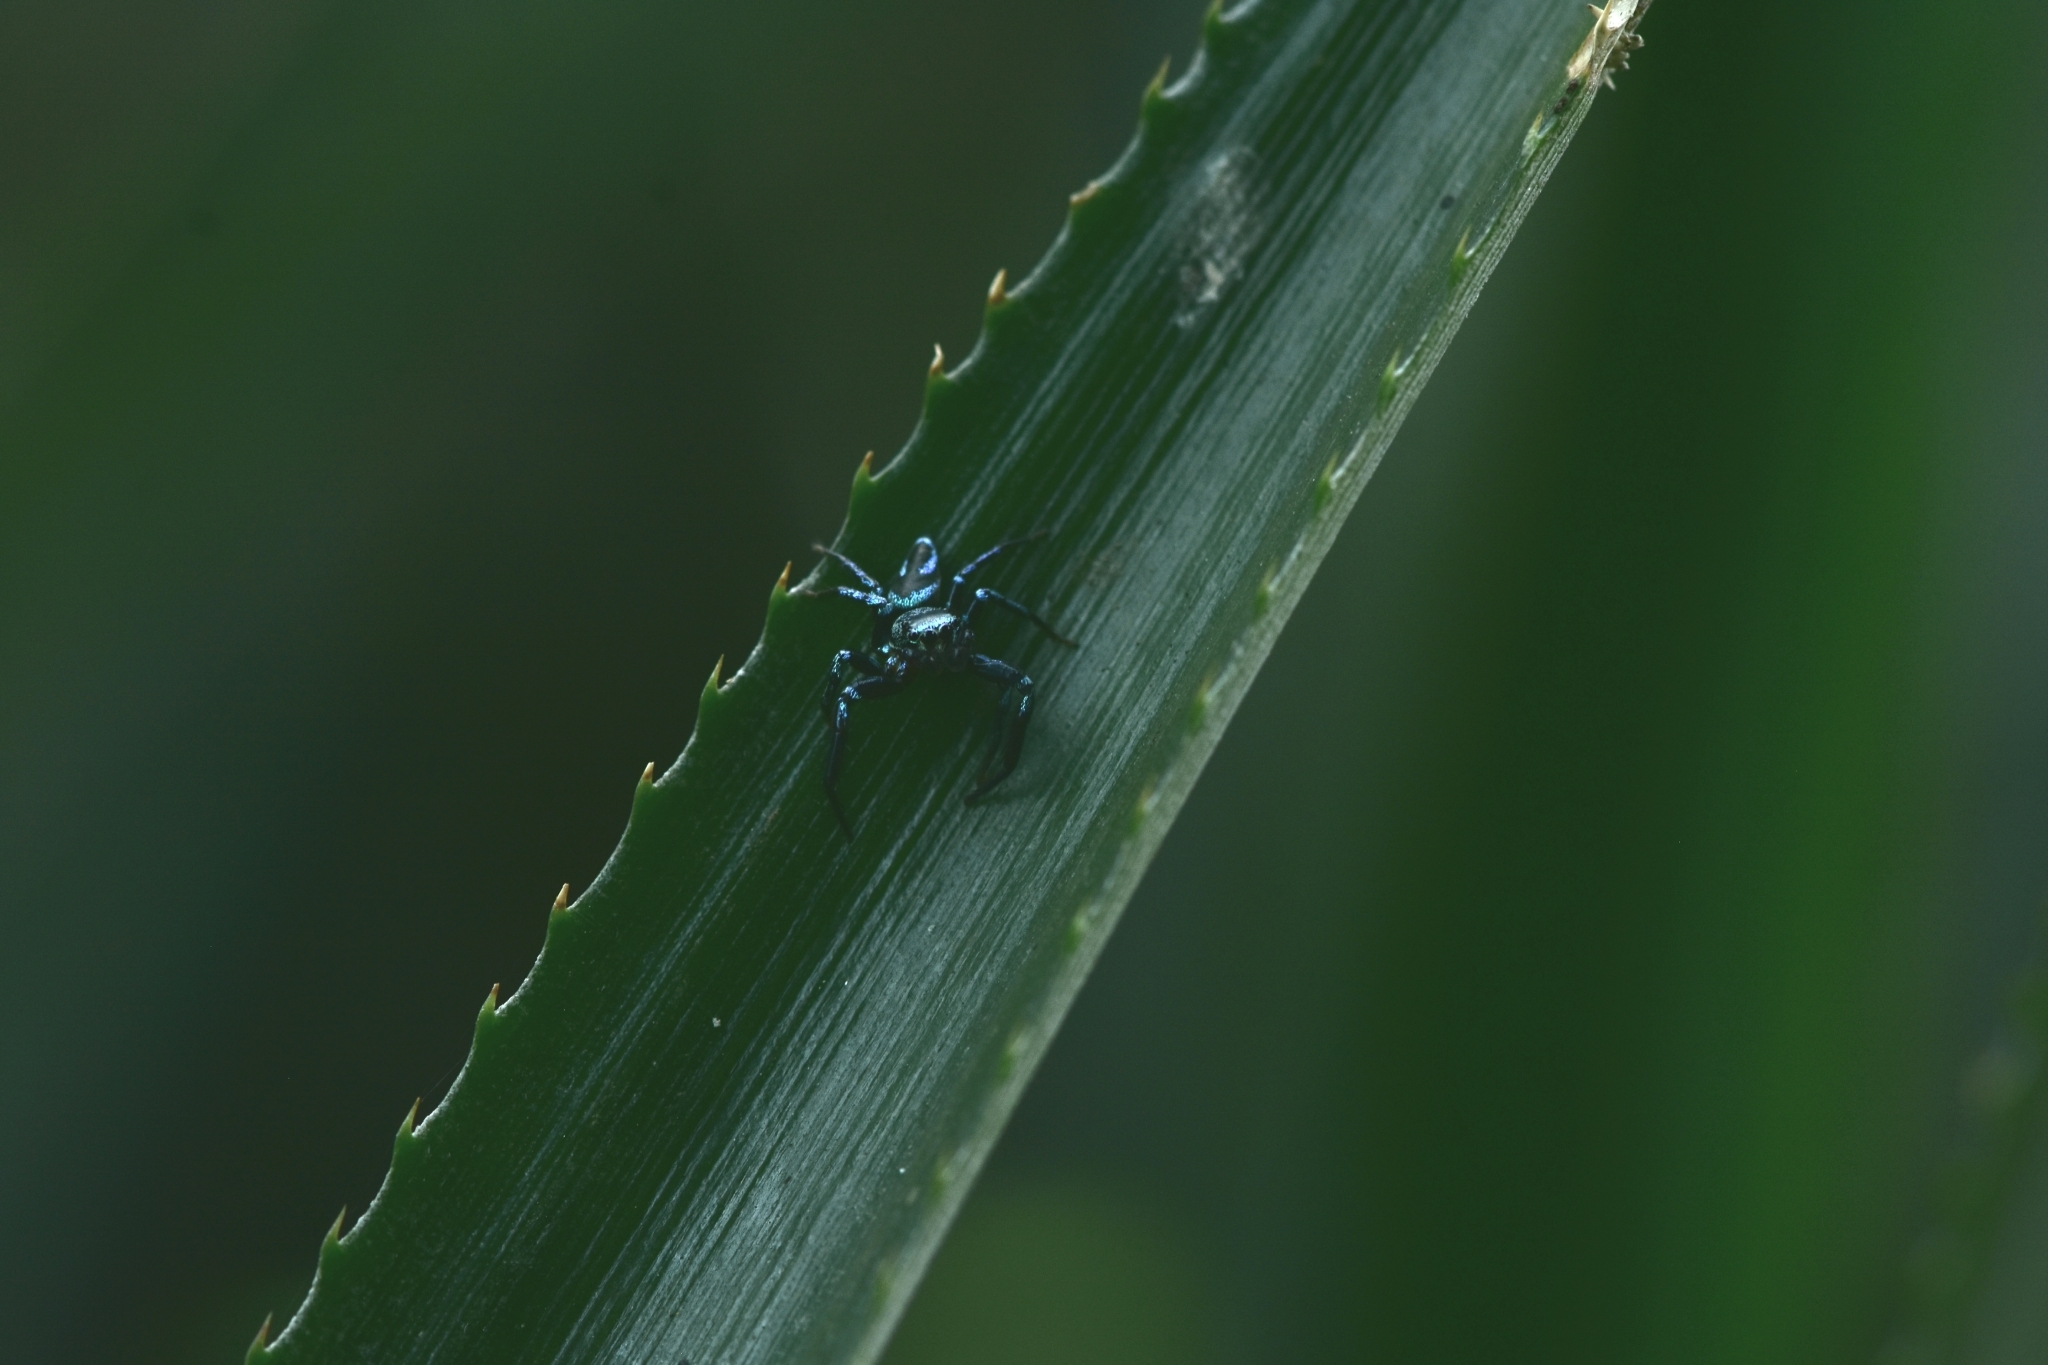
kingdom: Animalia
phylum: Arthropoda
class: Arachnida
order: Araneae
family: Salticidae
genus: Thiania
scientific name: Thiania bhamoensis
